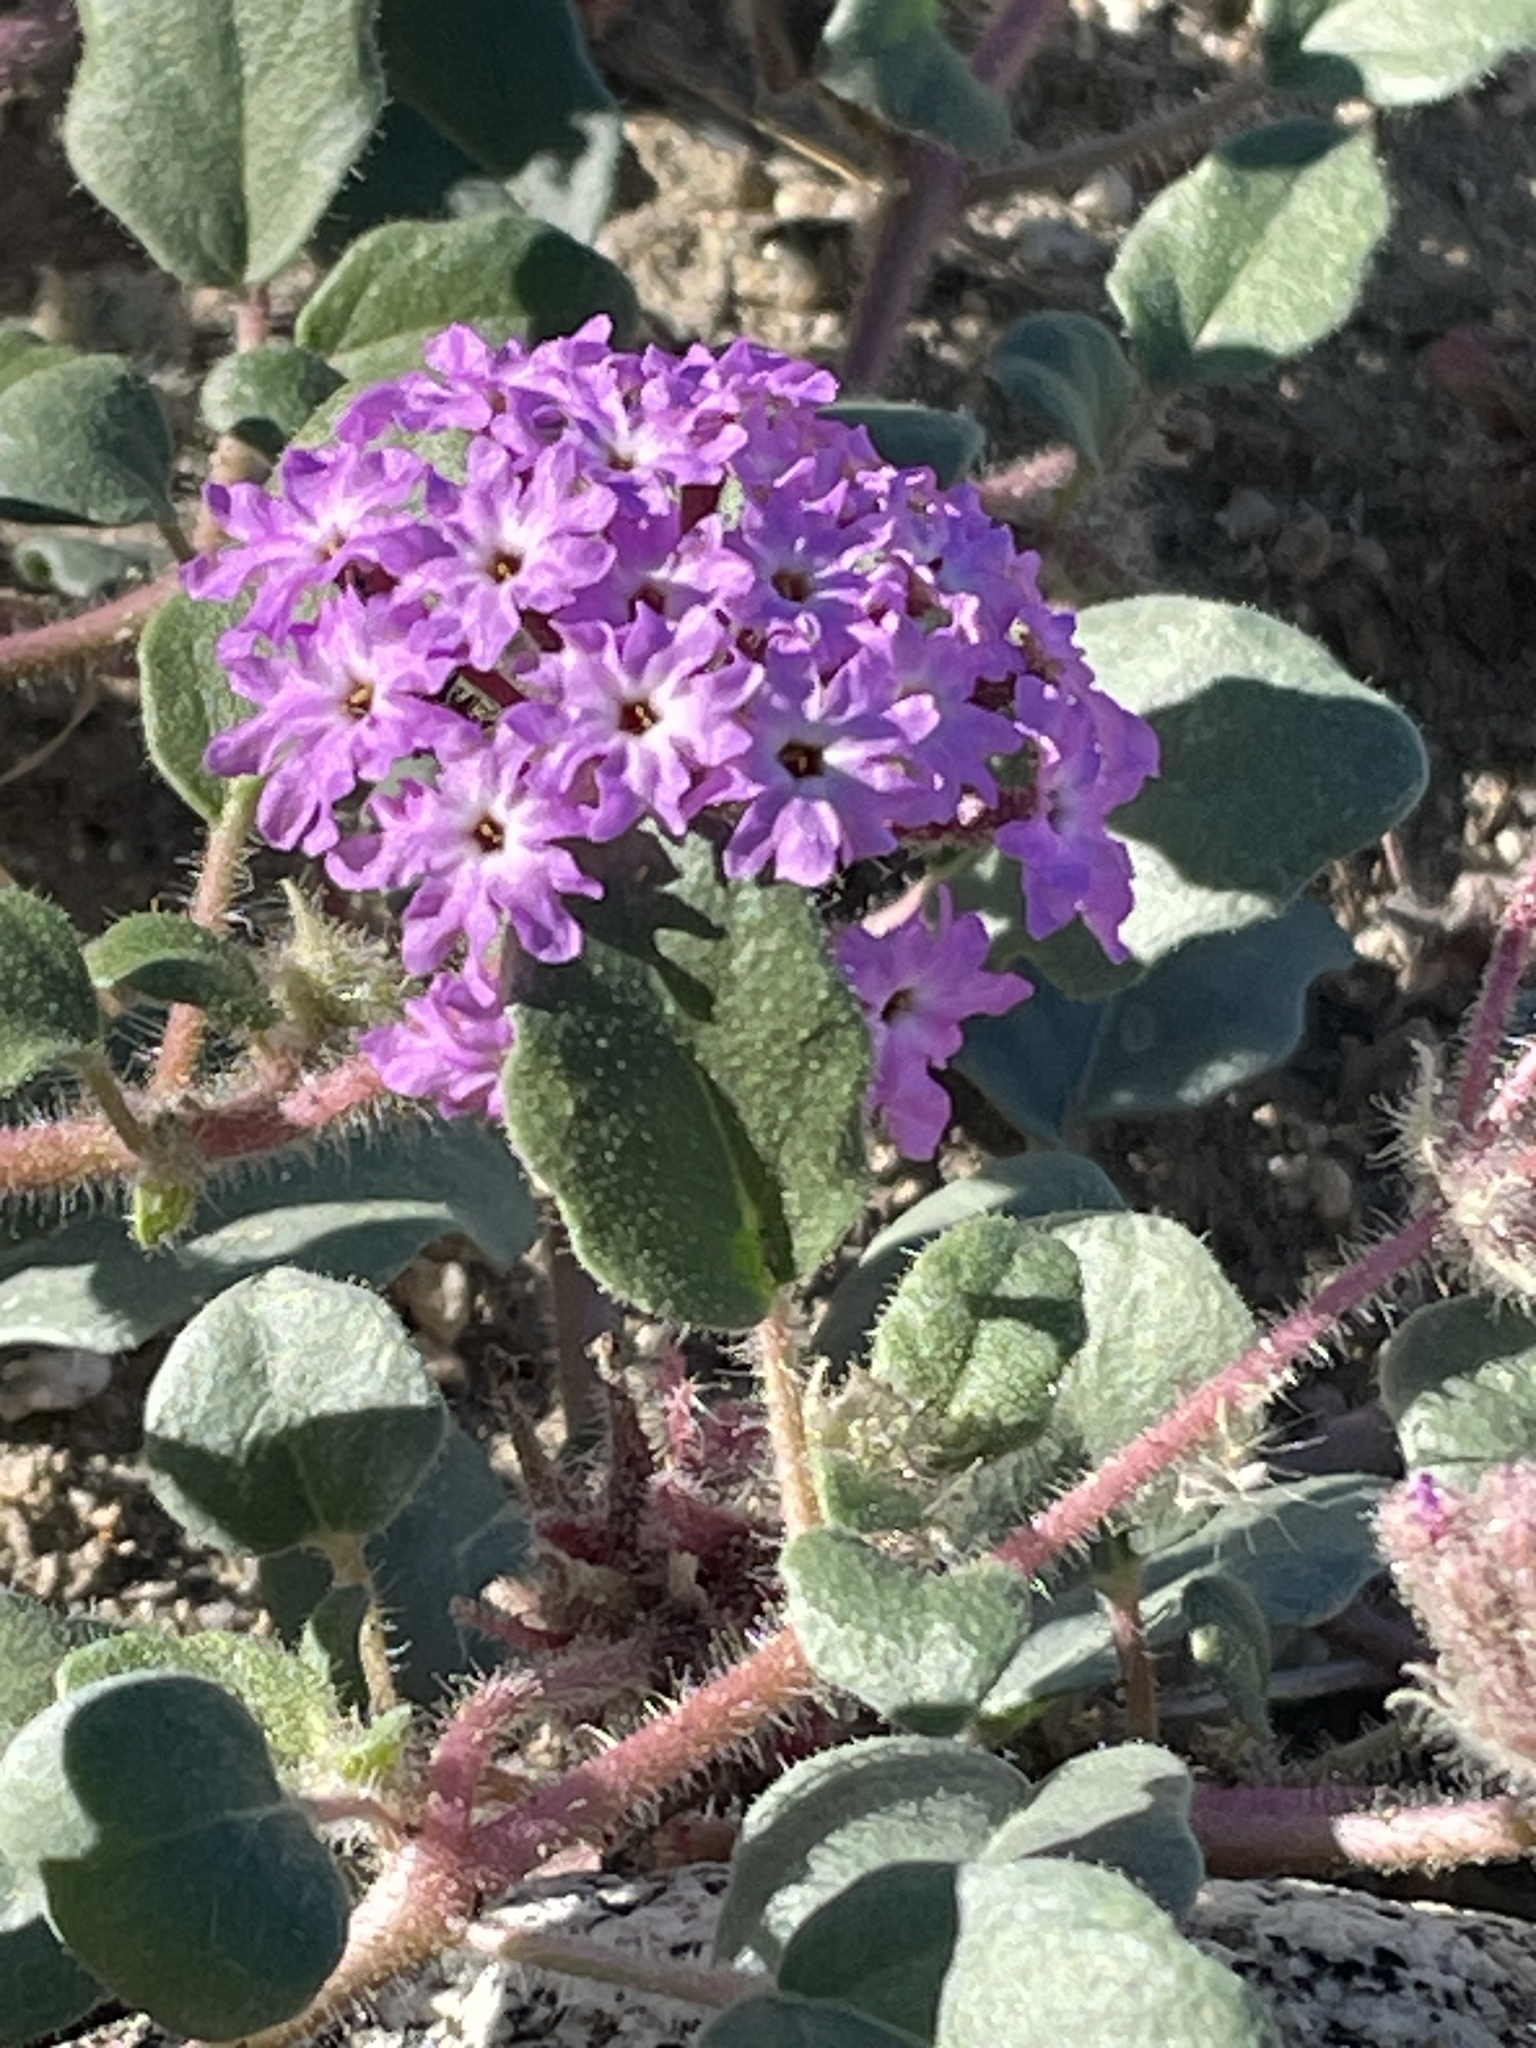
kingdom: Plantae
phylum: Tracheophyta
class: Magnoliopsida
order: Caryophyllales
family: Nyctaginaceae
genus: Abronia
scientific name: Abronia villosa
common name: Desert sand-verbena
